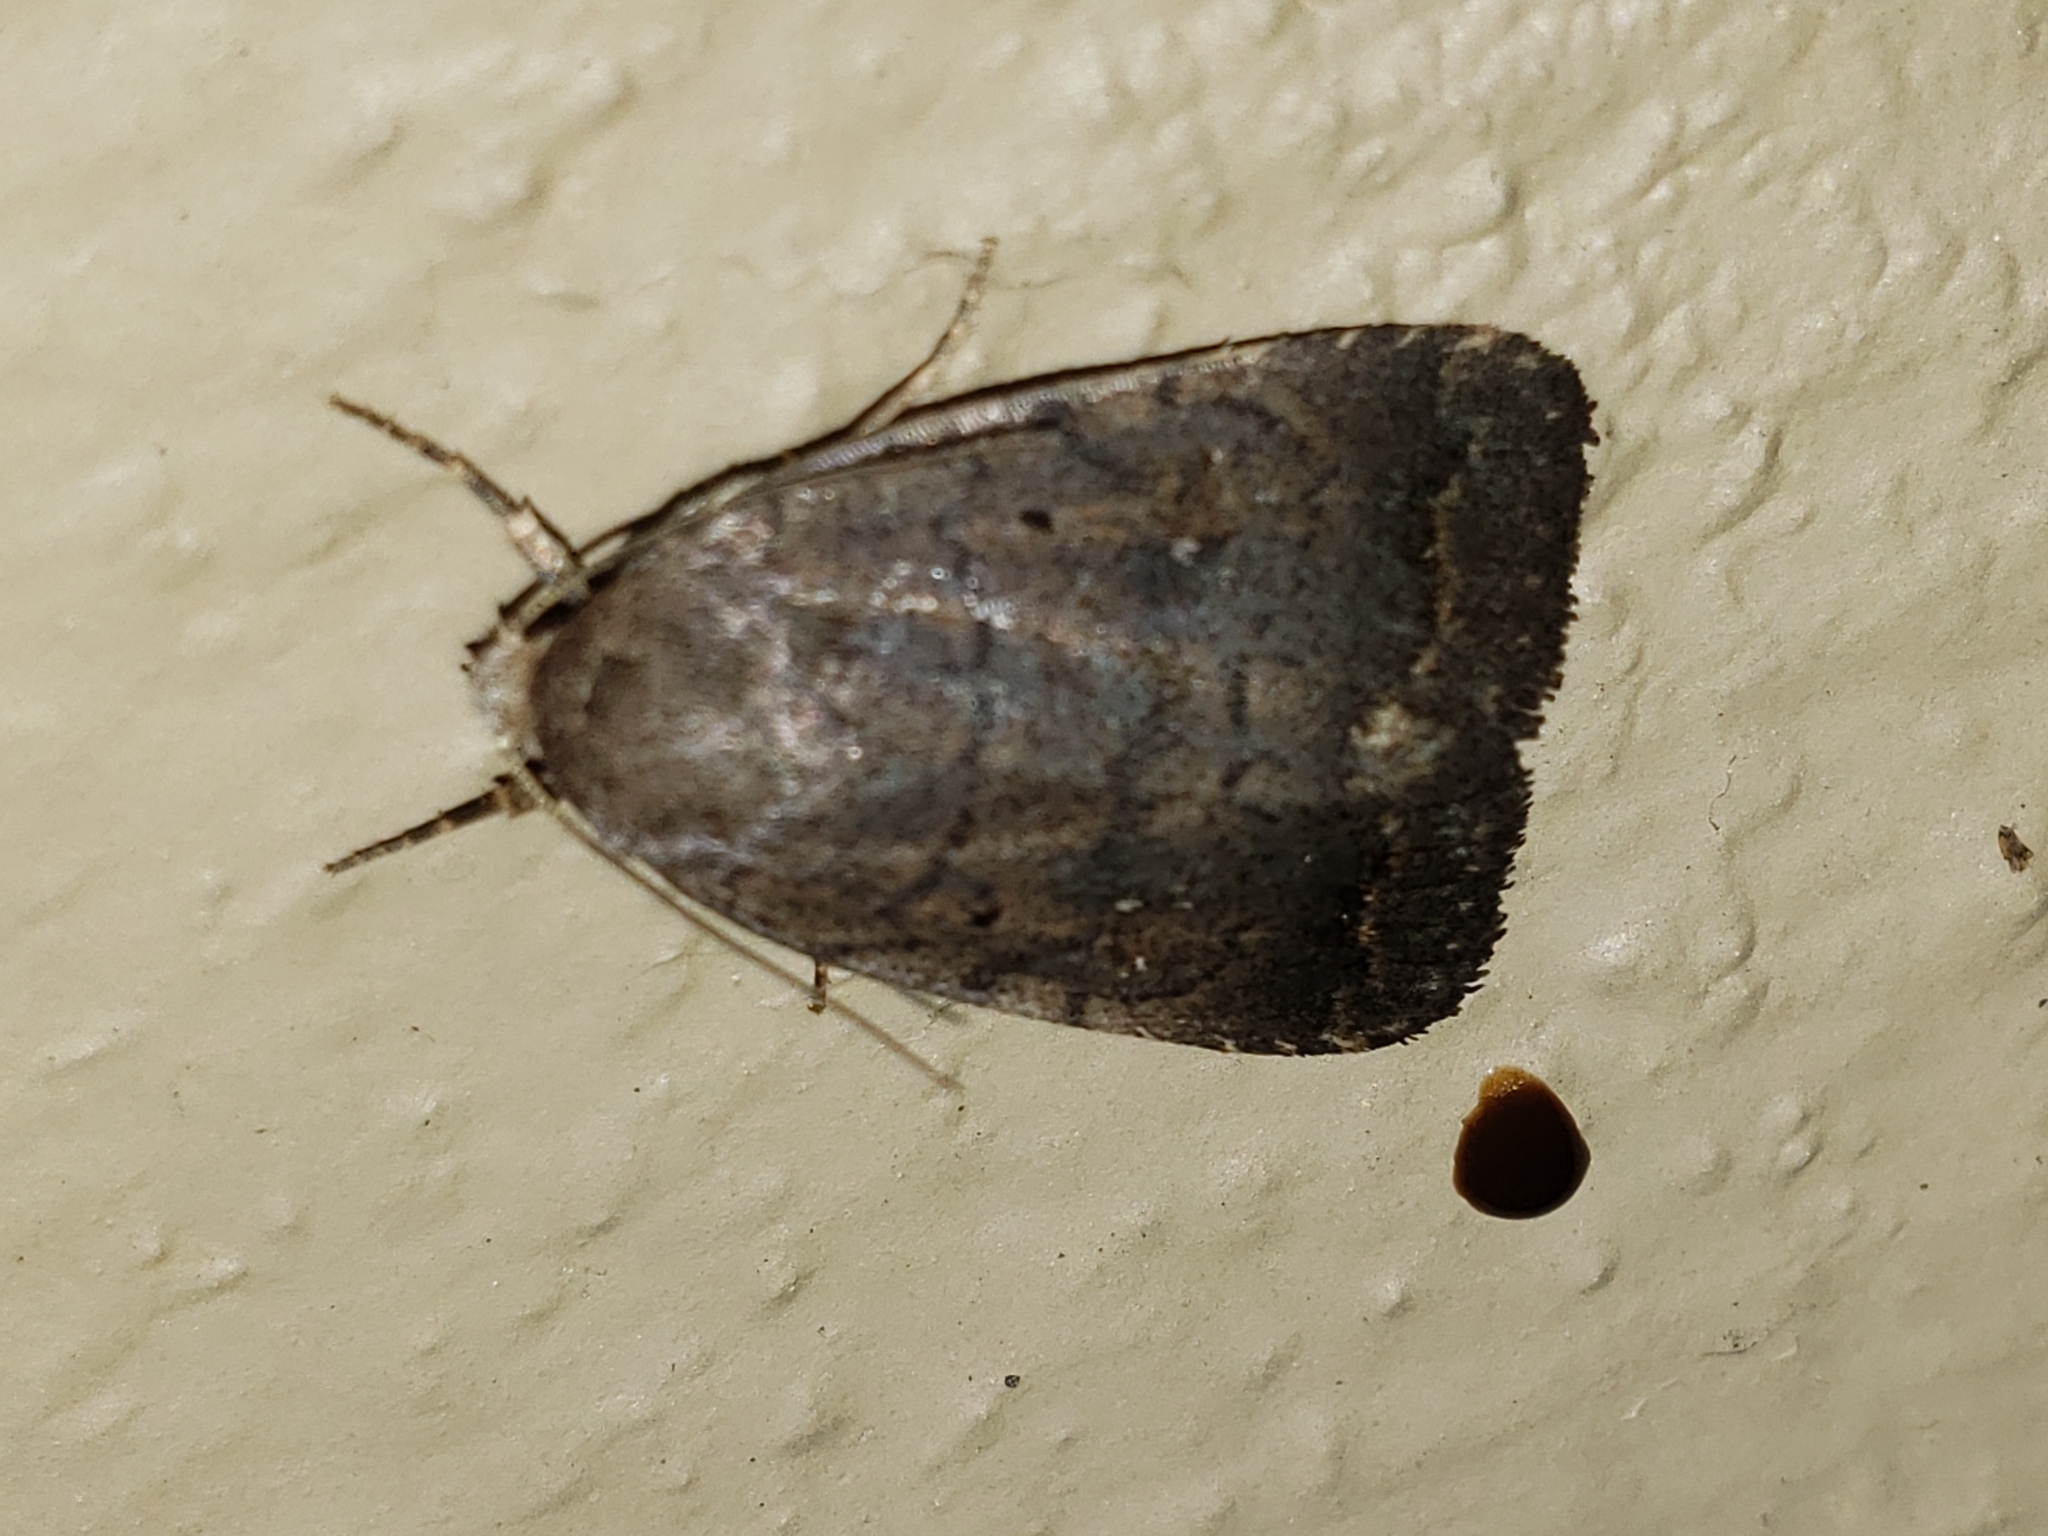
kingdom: Animalia
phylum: Arthropoda
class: Insecta
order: Lepidoptera
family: Noctuidae
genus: Athetis
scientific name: Athetis tarda
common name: Slowpoke moth
